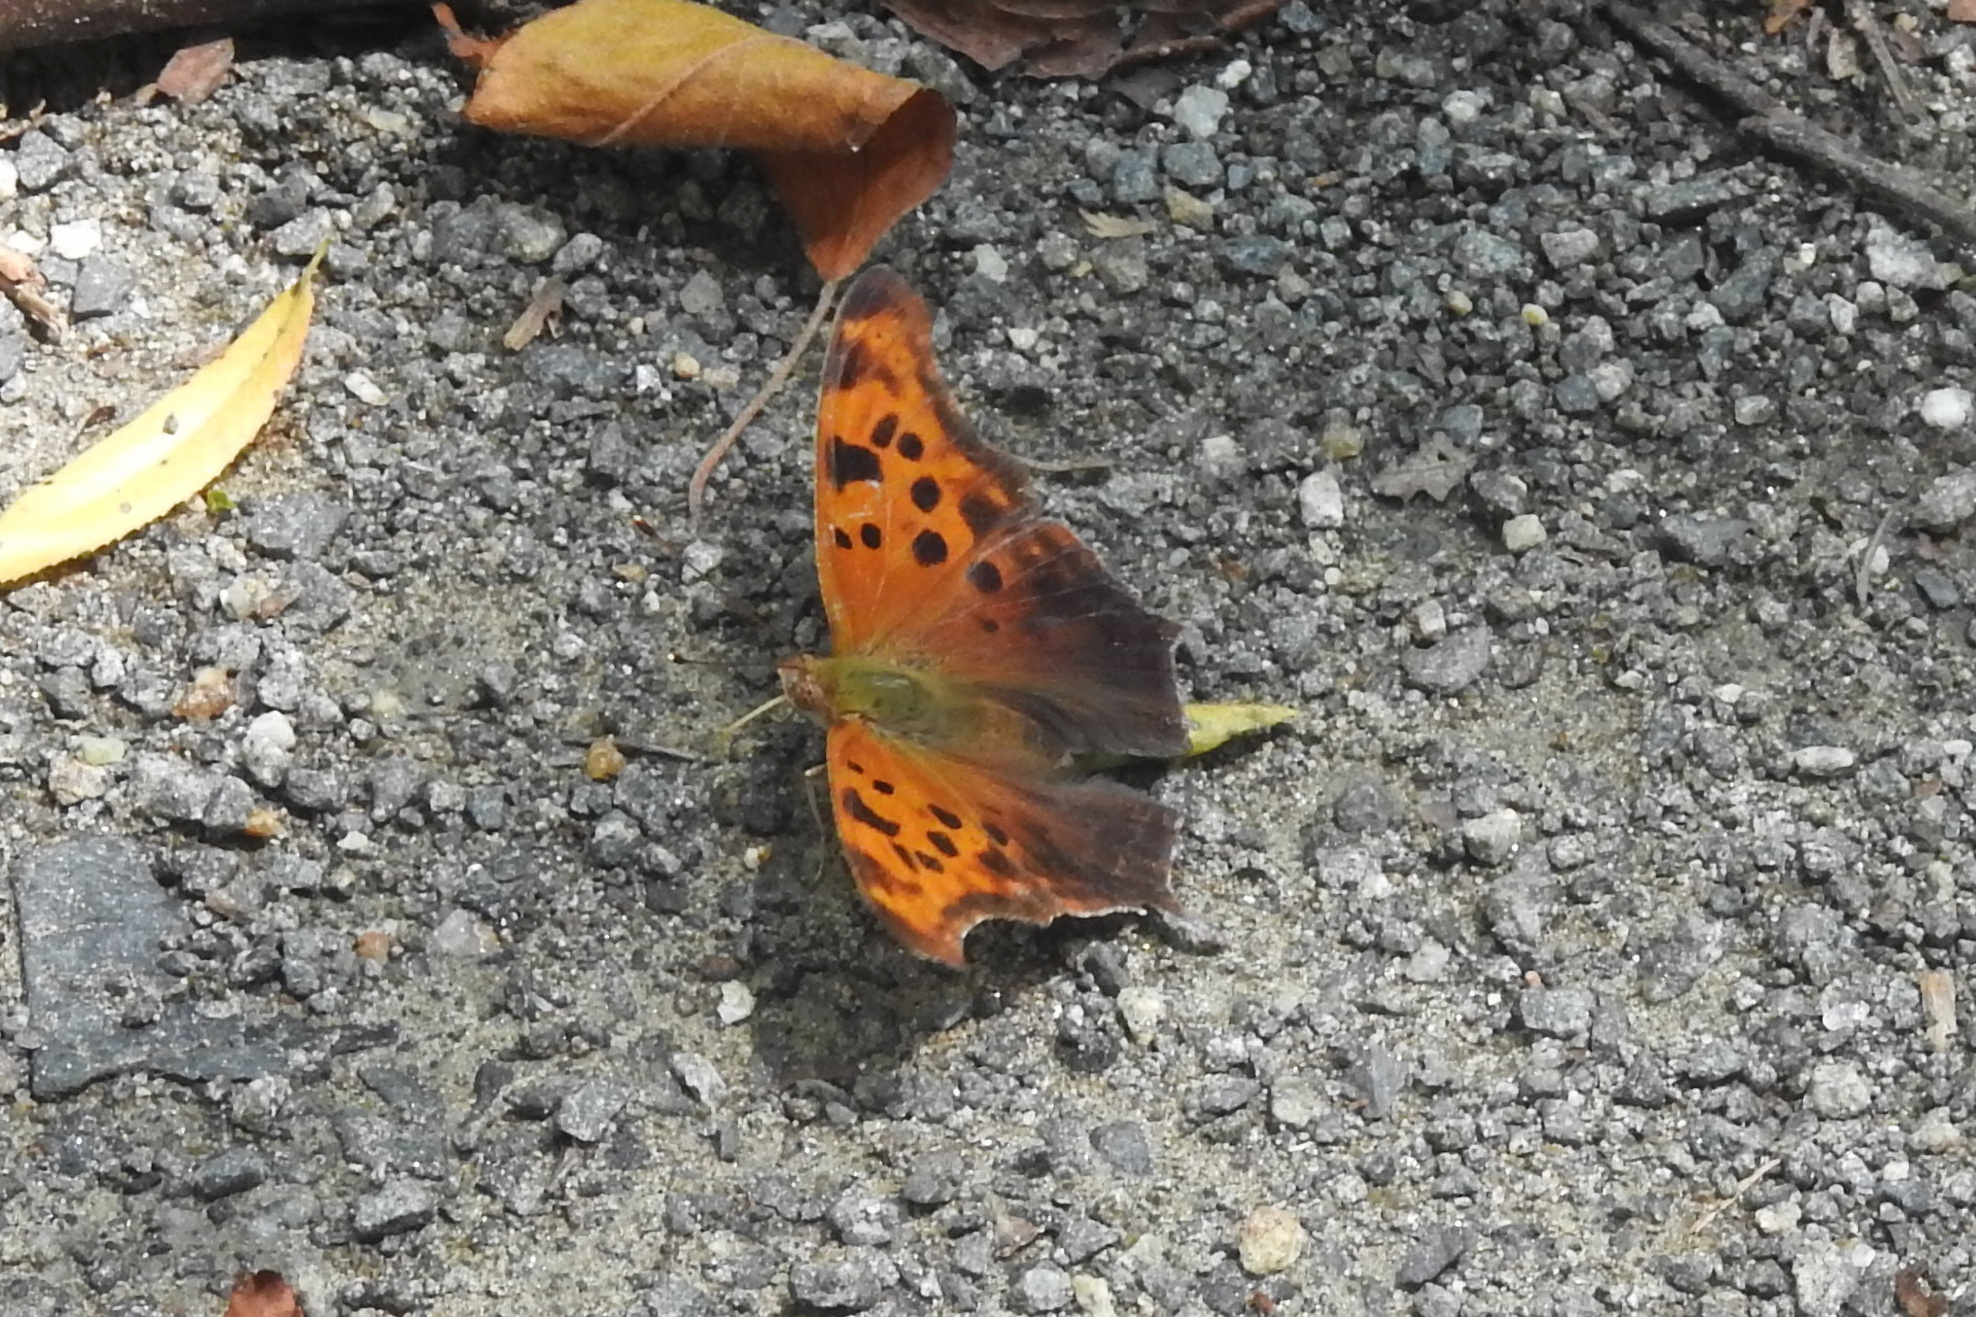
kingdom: Animalia
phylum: Arthropoda
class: Insecta
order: Lepidoptera
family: Nymphalidae
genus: Polygonia
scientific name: Polygonia interrogationis
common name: Question mark
